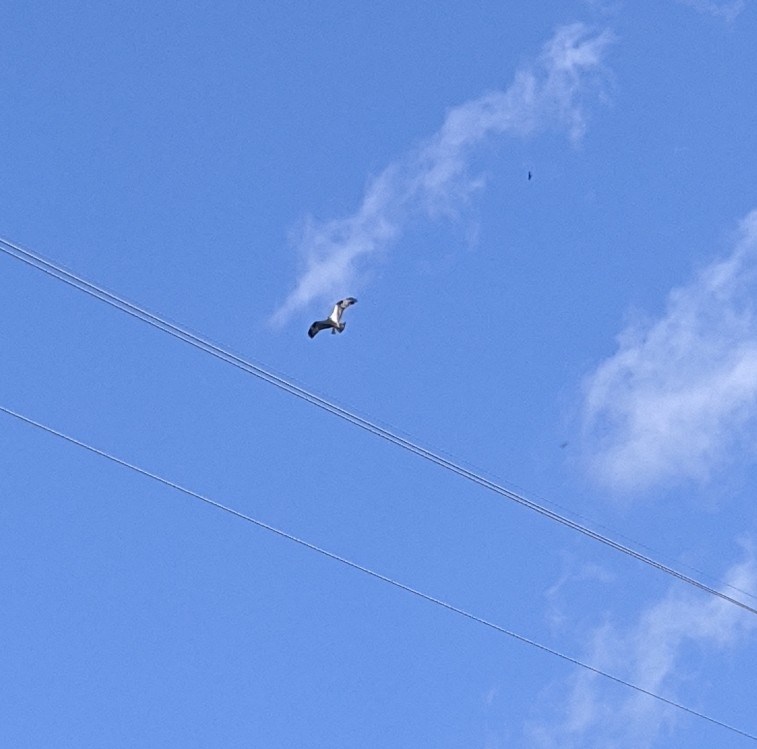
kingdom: Animalia
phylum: Chordata
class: Aves
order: Accipitriformes
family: Pandionidae
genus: Pandion
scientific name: Pandion haliaetus
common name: Osprey
